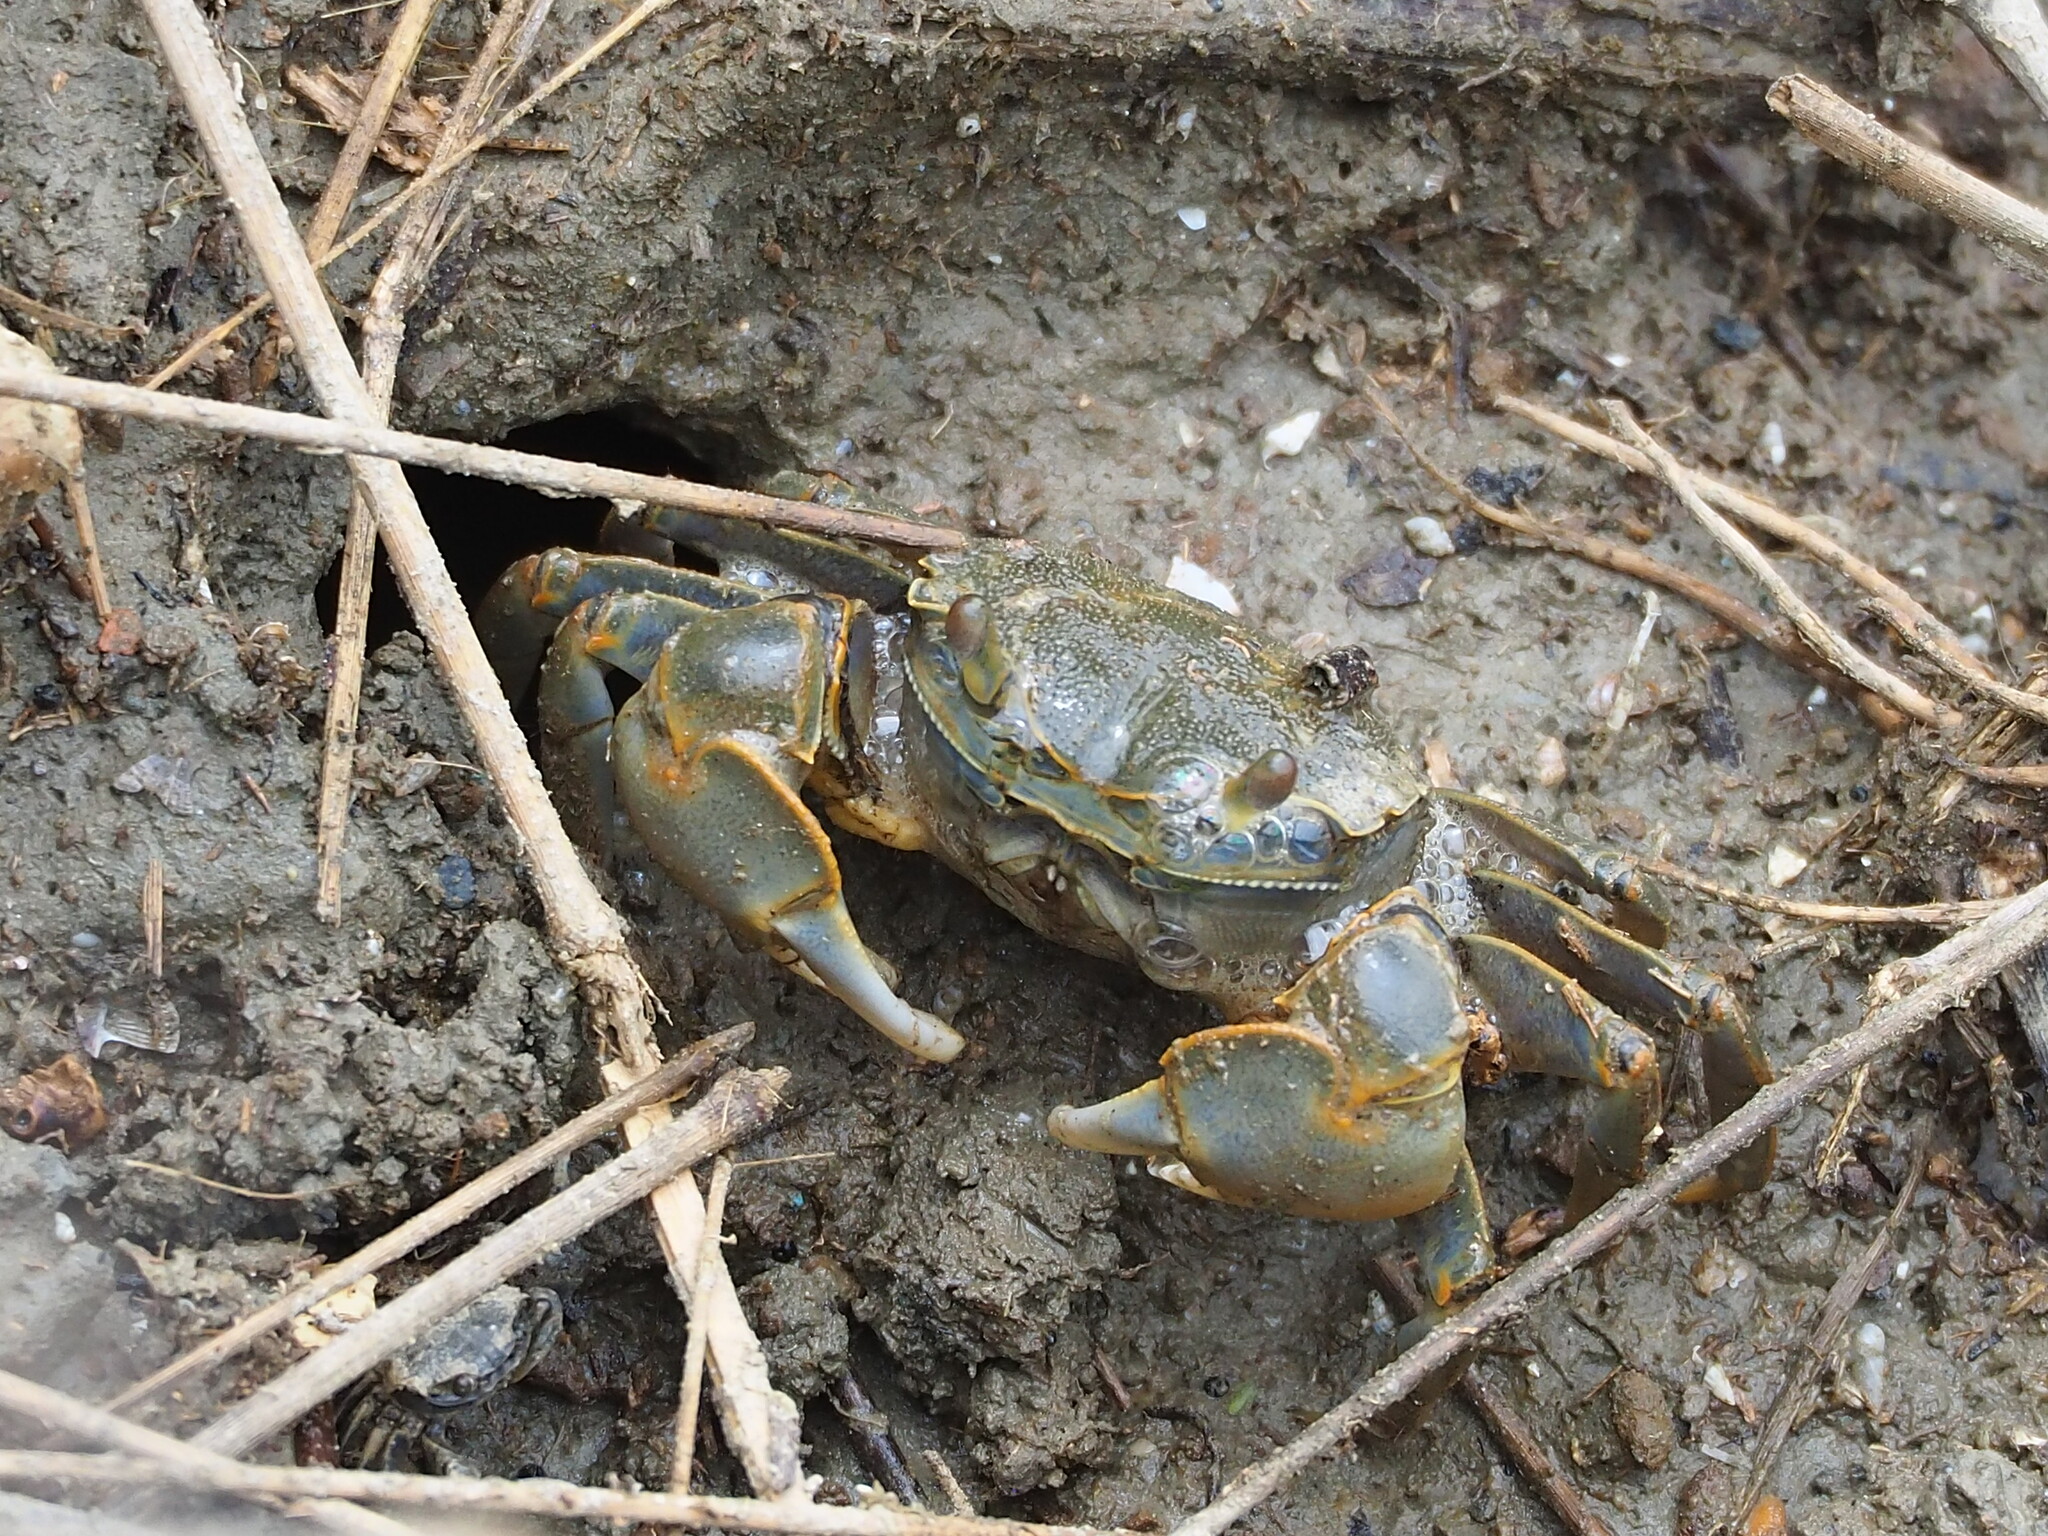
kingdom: Animalia
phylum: Arthropoda
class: Malacostraca
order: Decapoda
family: Varunidae
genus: Helice
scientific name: Helice formosensis
